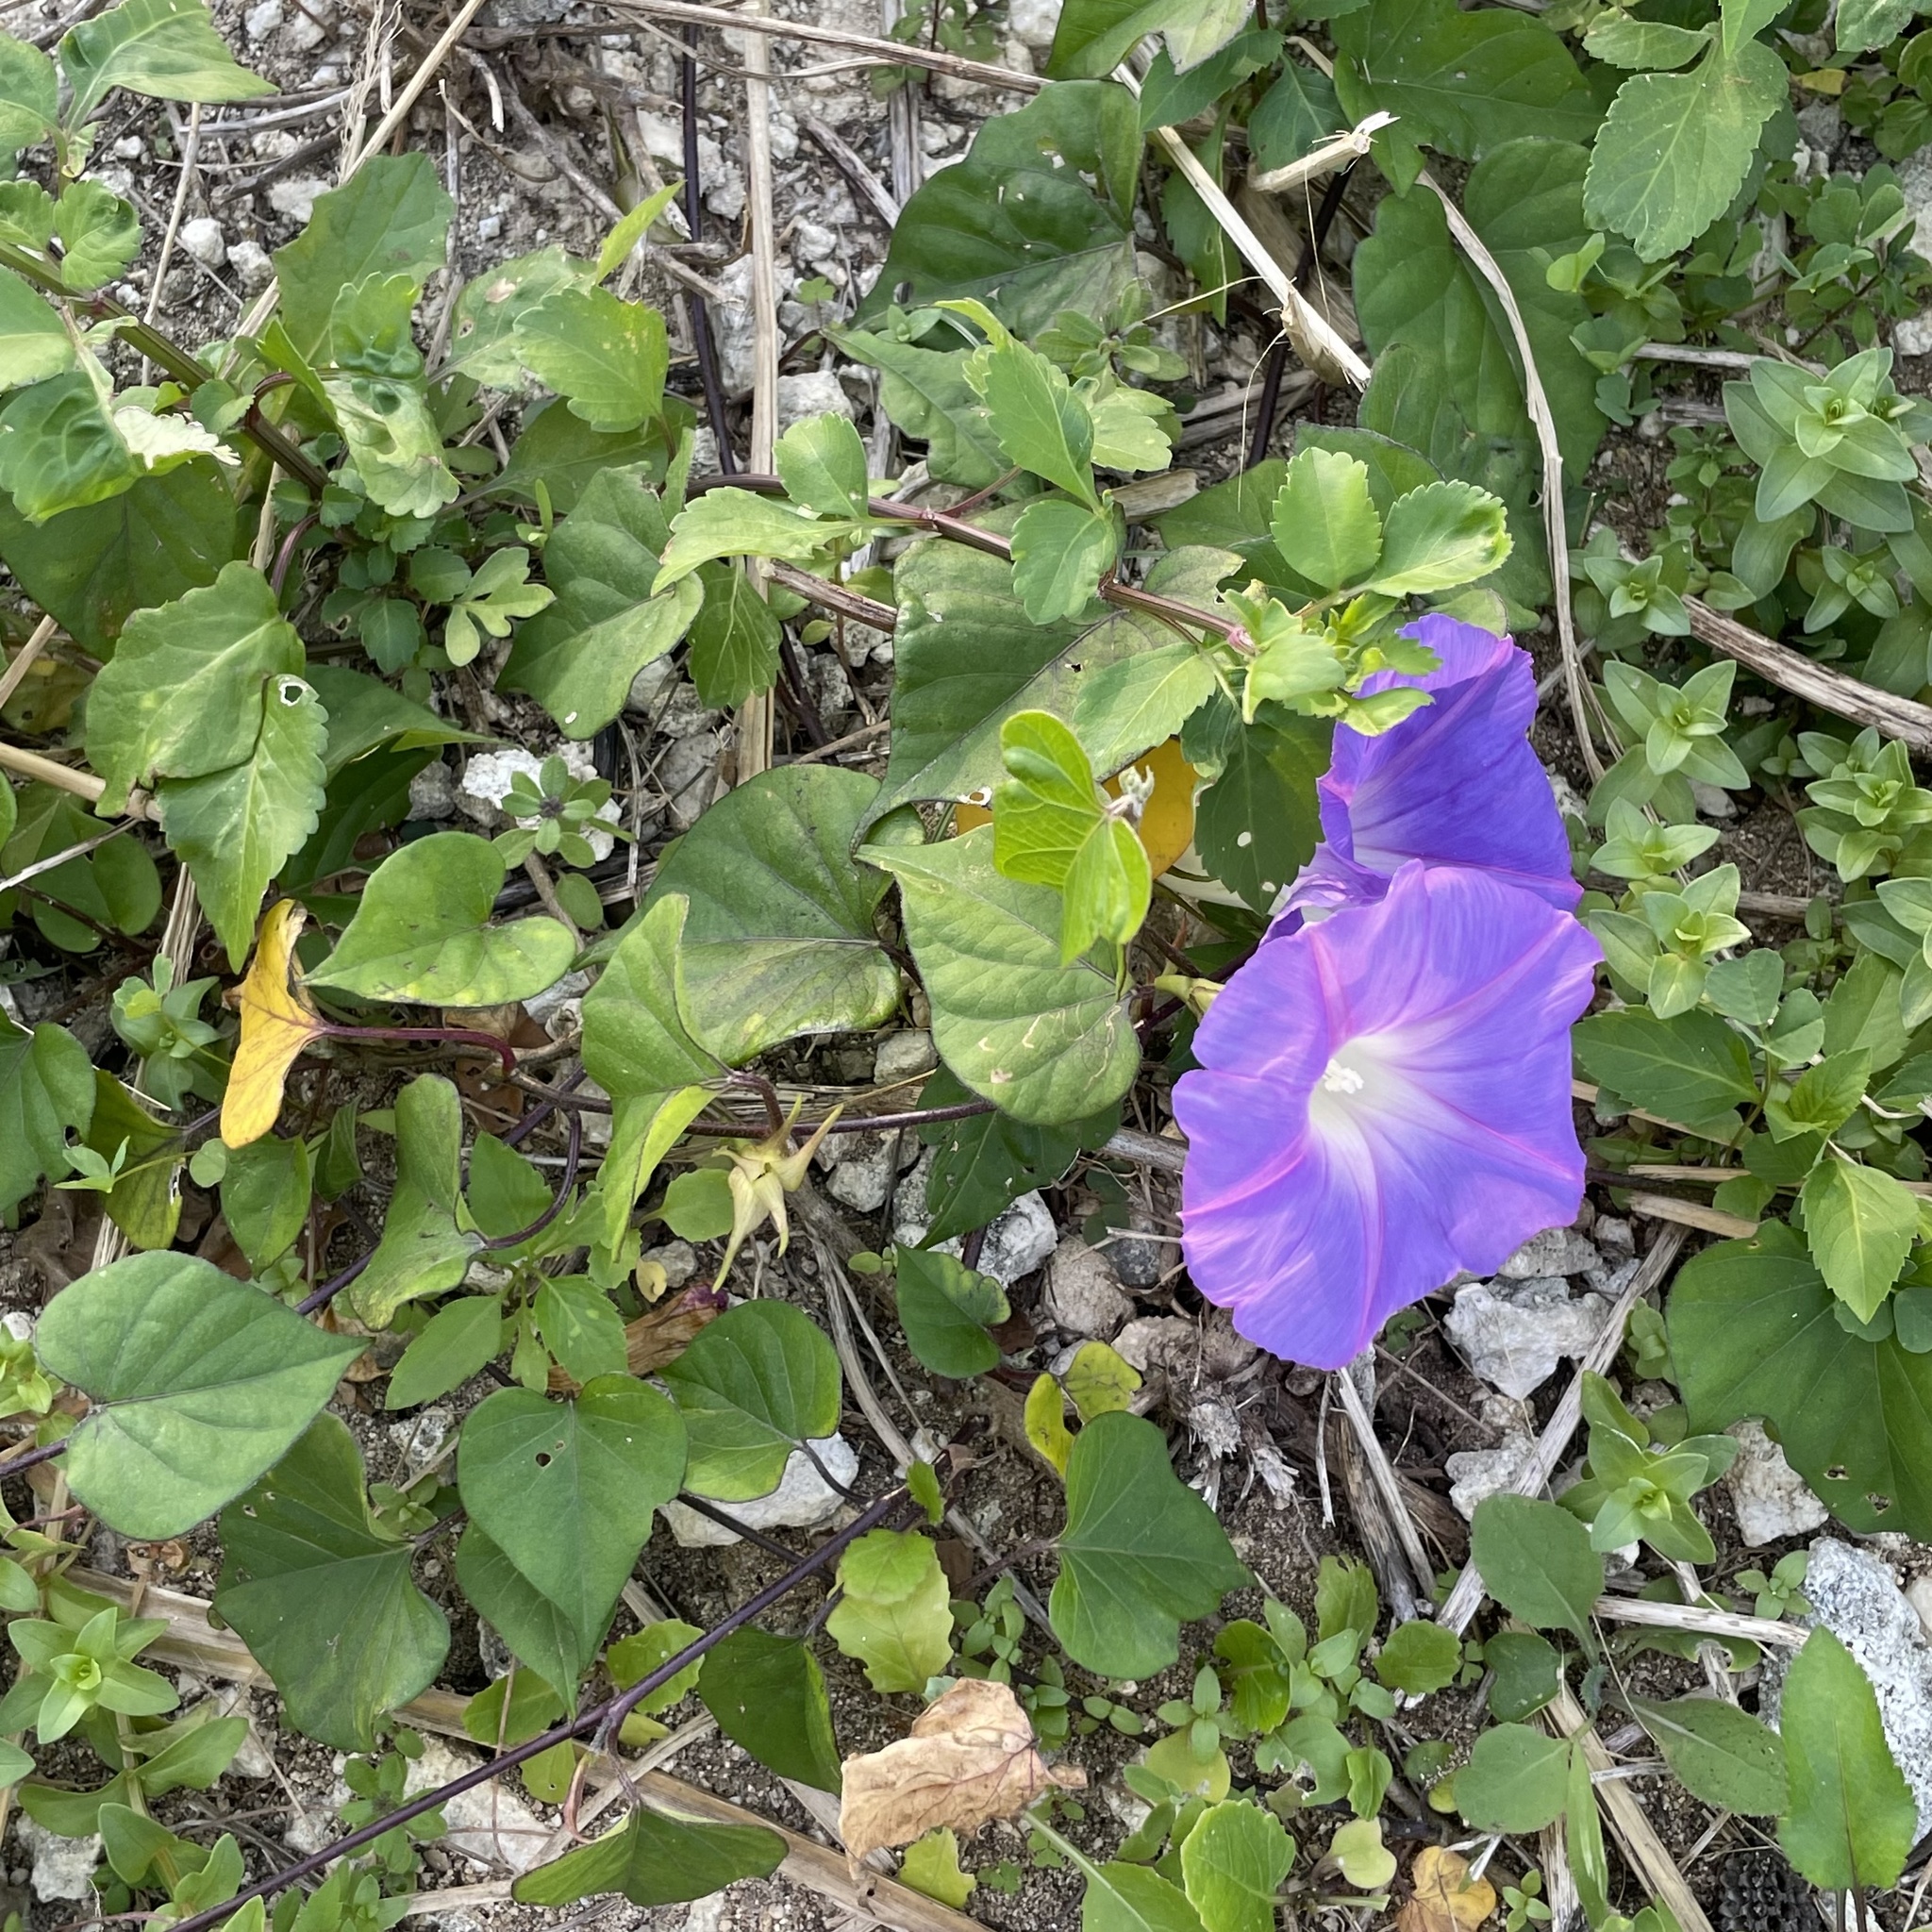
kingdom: Plantae
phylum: Tracheophyta
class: Magnoliopsida
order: Solanales
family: Convolvulaceae
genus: Ipomoea
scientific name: Ipomoea indica
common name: Blue dawnflower
